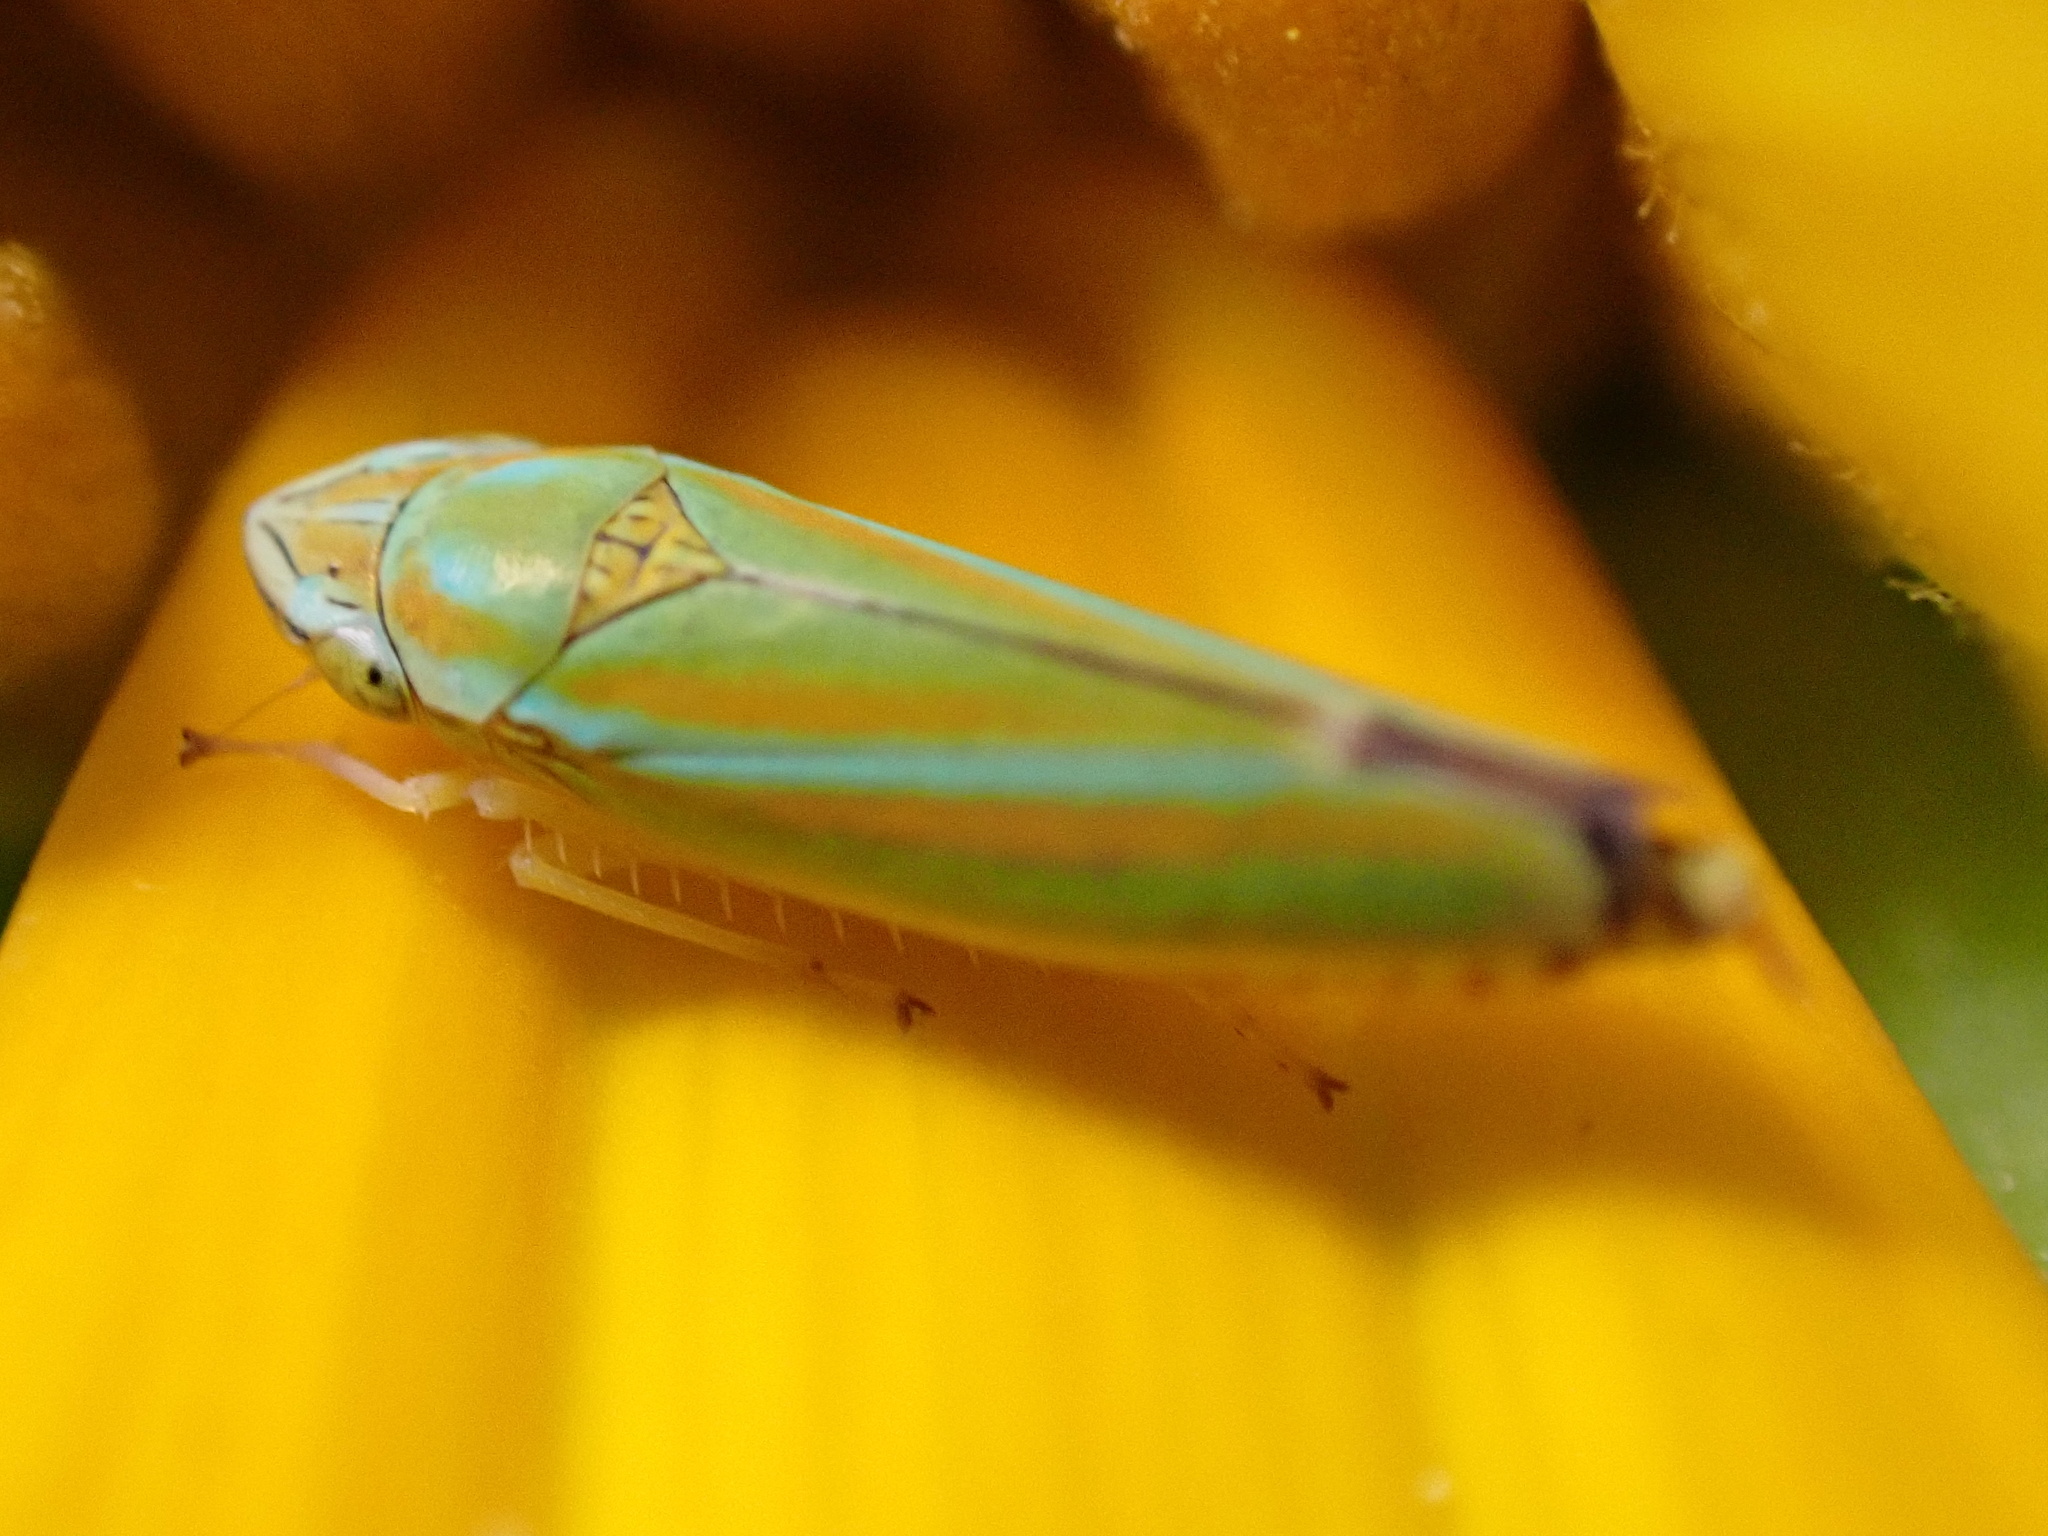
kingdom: Animalia
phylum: Arthropoda
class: Insecta
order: Hemiptera
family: Cicadellidae
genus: Graphocephala
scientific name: Graphocephala versuta
